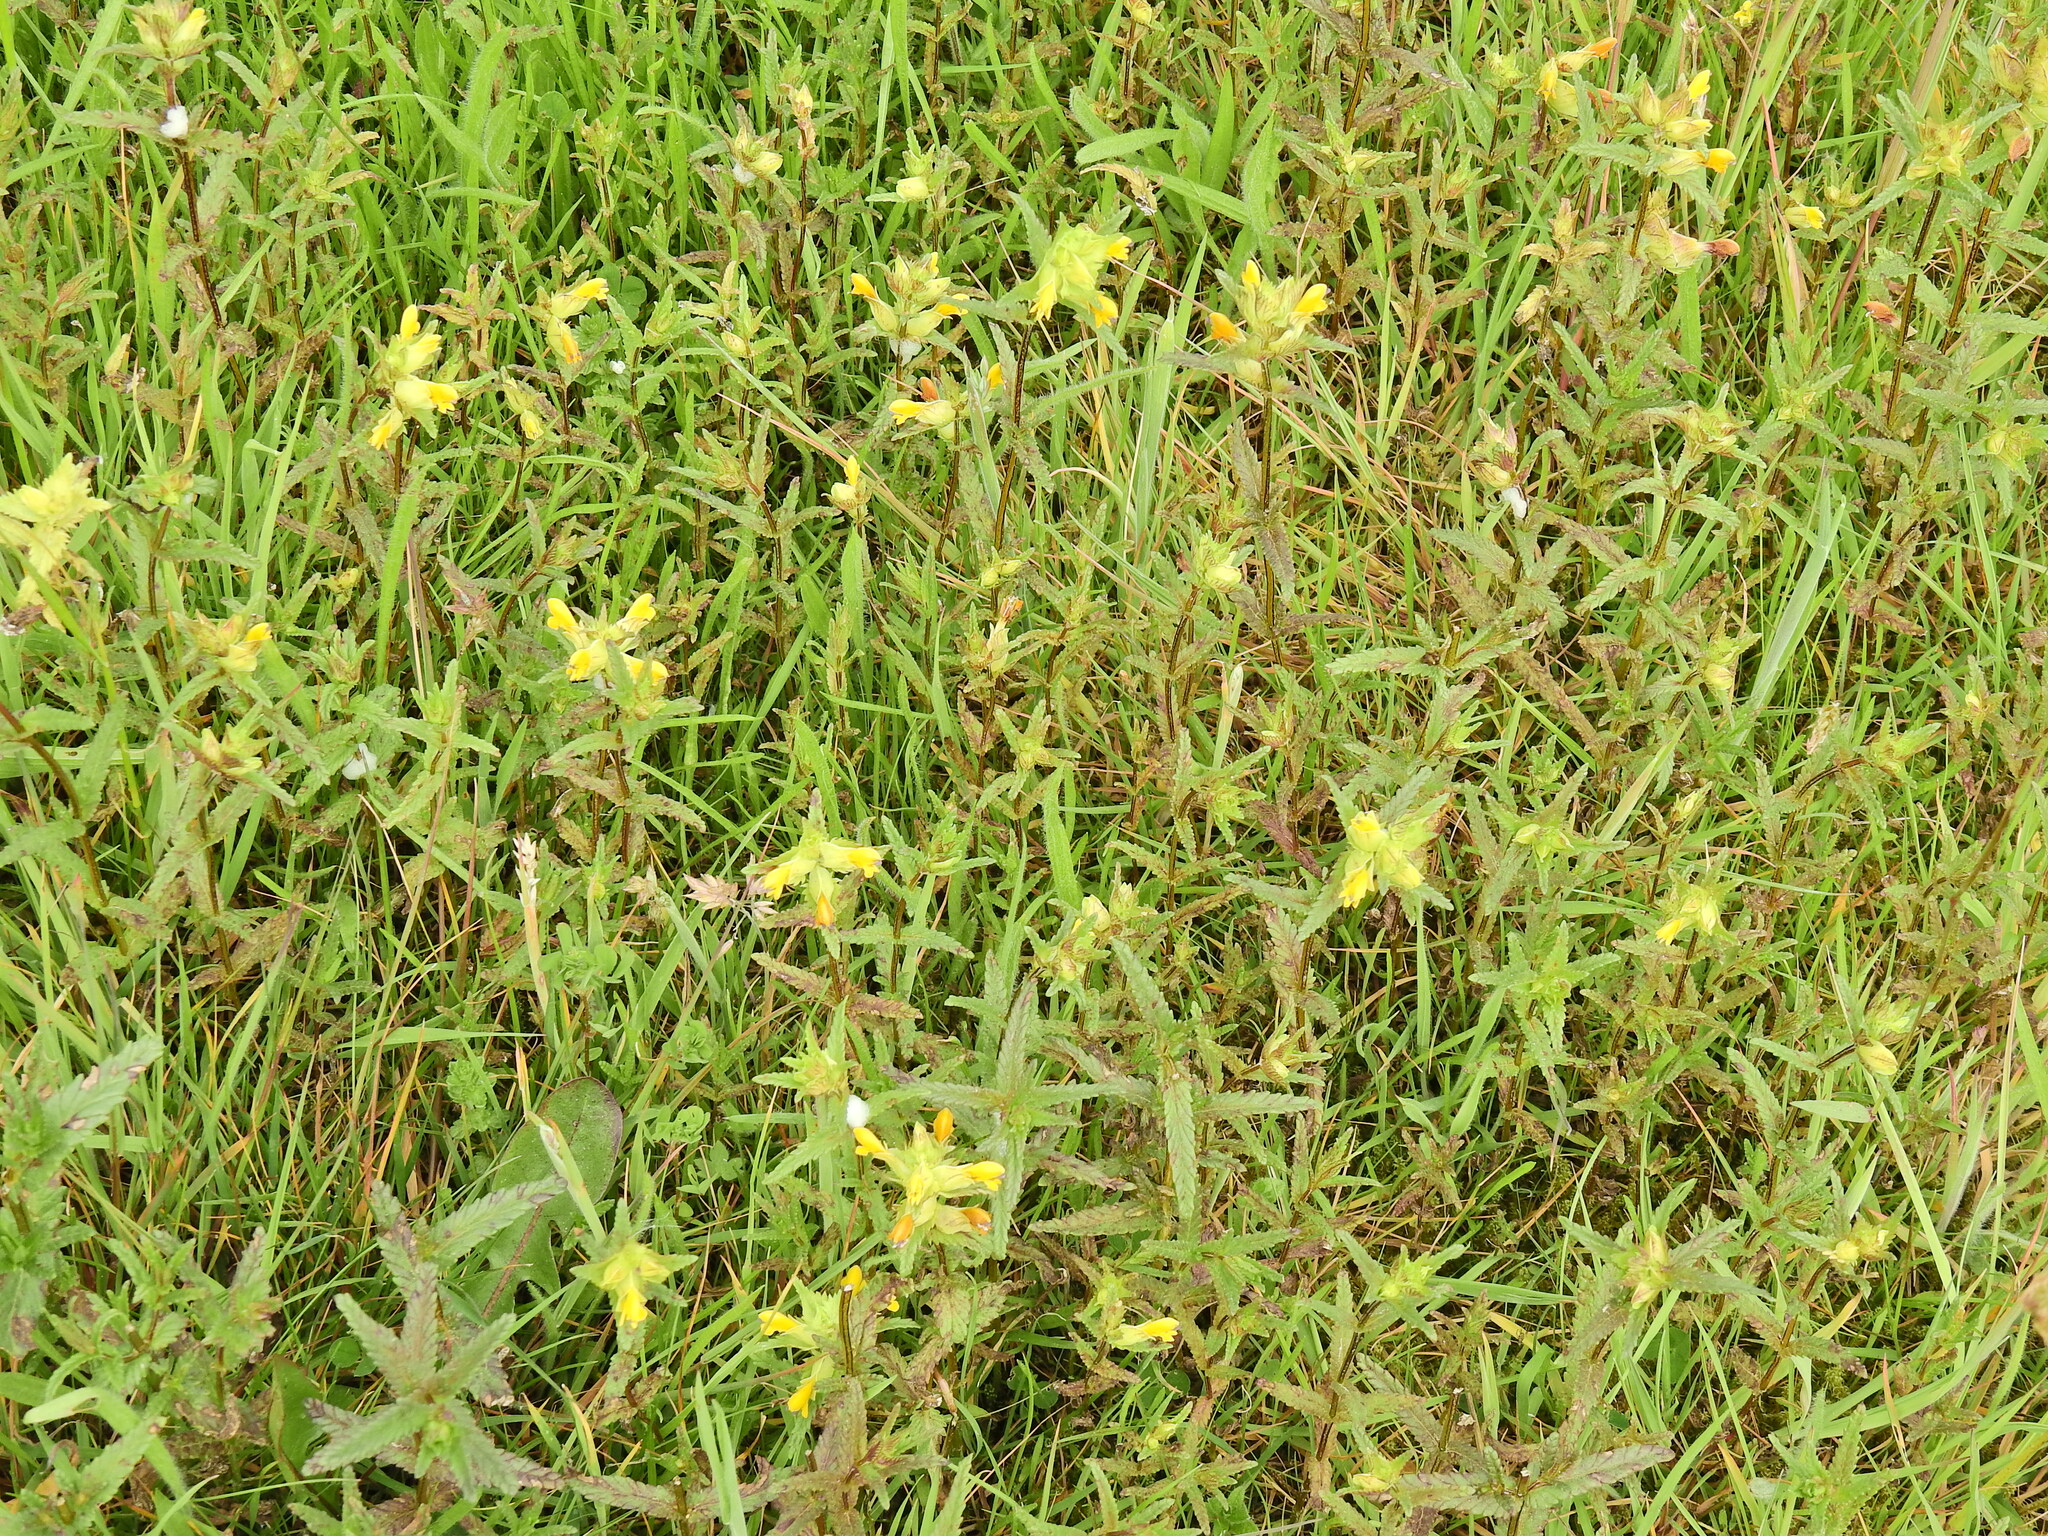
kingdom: Plantae
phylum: Tracheophyta
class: Magnoliopsida
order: Lamiales
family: Orobanchaceae
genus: Rhinanthus
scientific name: Rhinanthus minor
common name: Yellow-rattle
